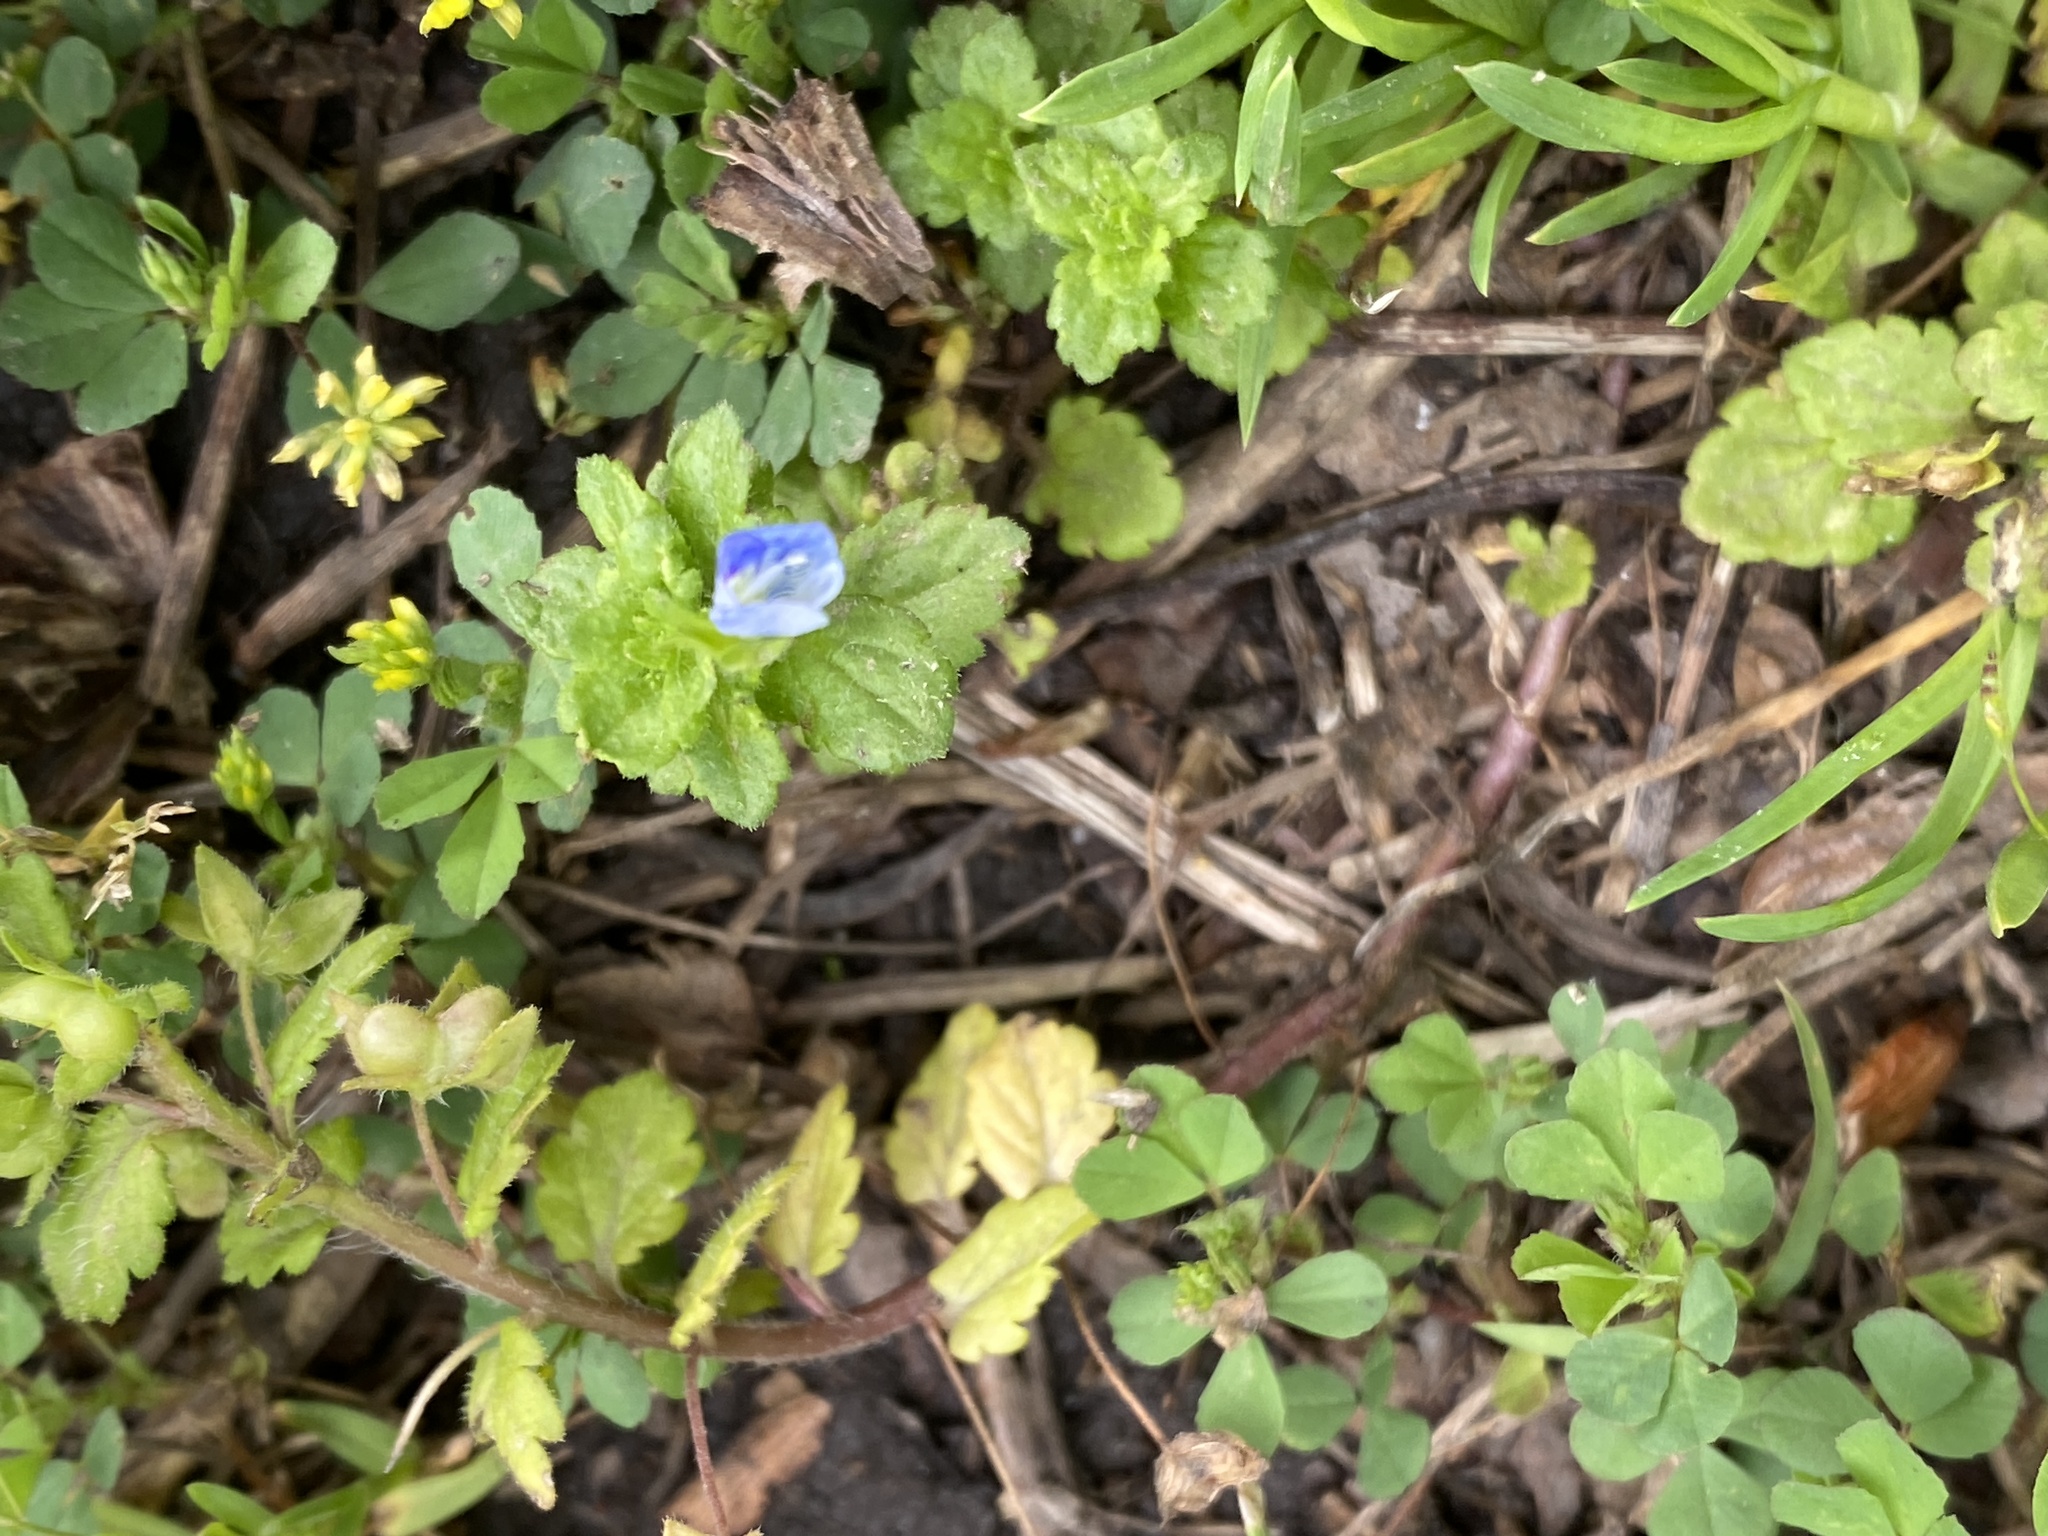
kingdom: Plantae
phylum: Tracheophyta
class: Magnoliopsida
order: Lamiales
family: Plantaginaceae
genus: Veronica
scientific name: Veronica persica
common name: Common field-speedwell
